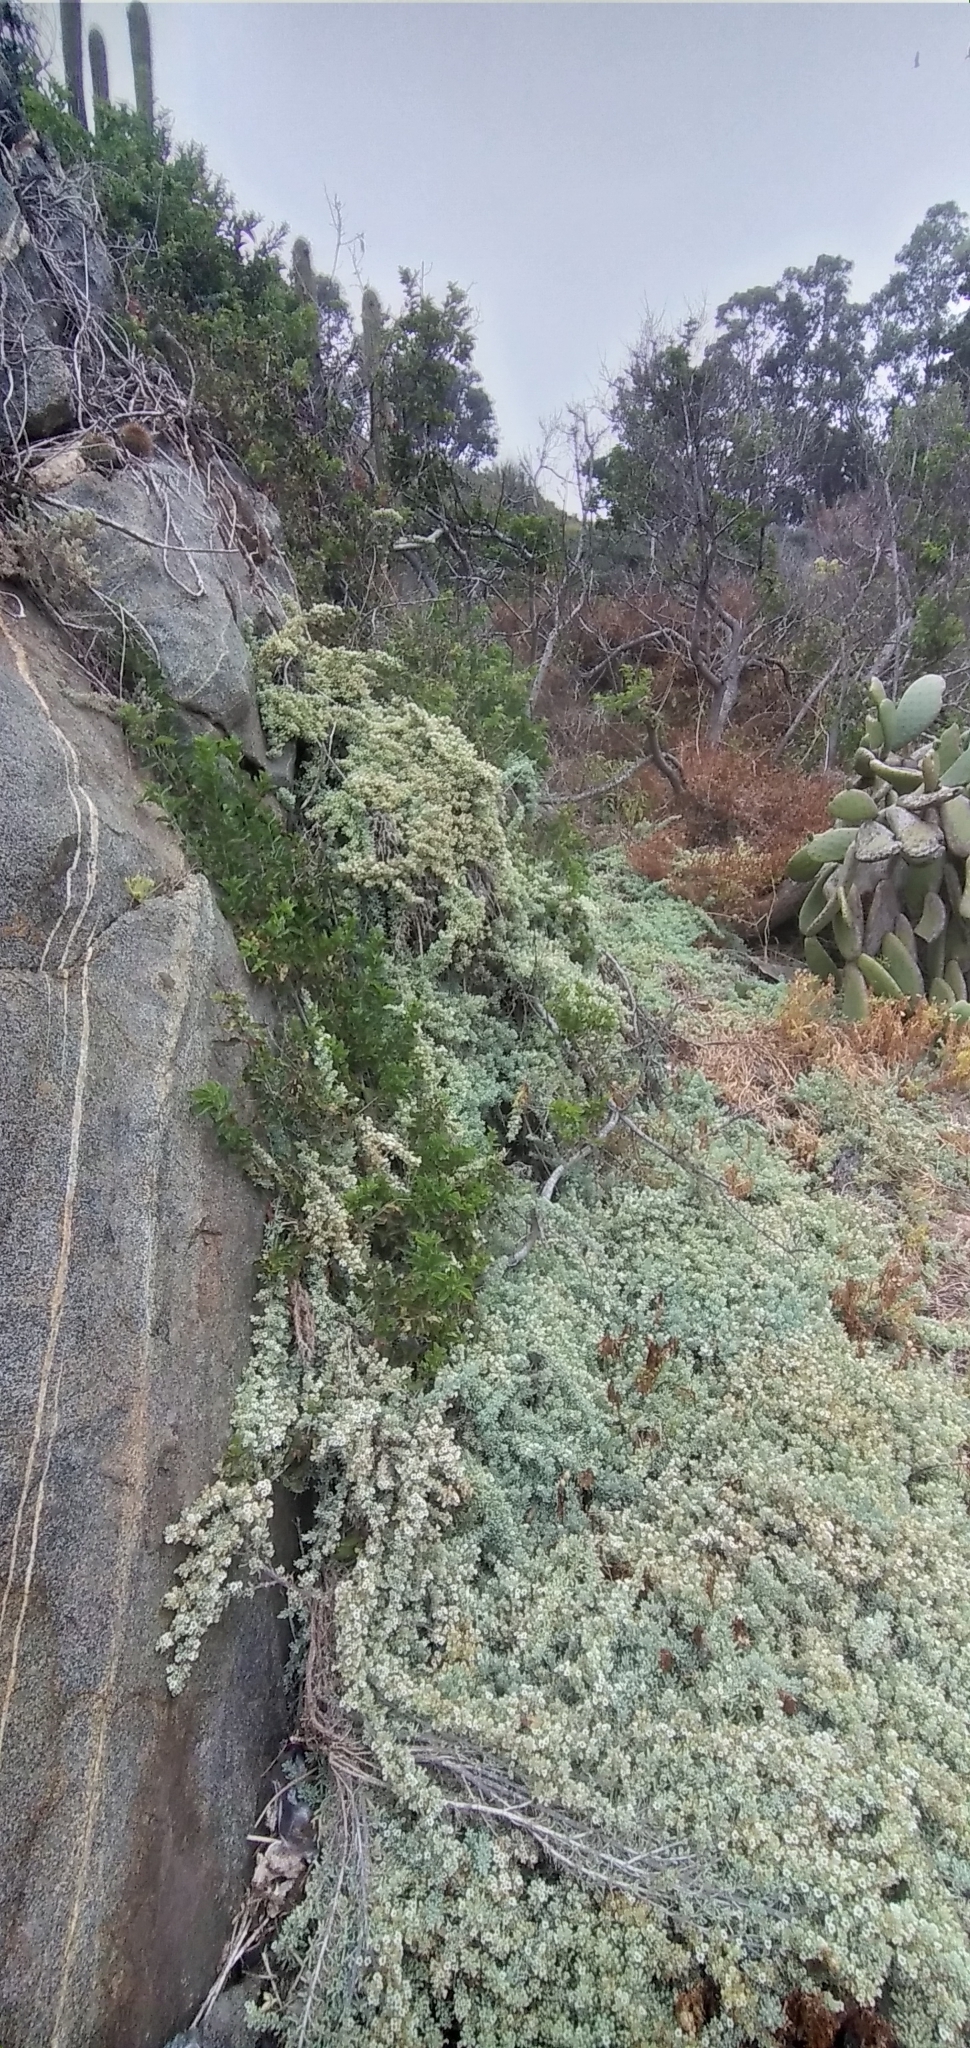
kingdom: Plantae
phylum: Tracheophyta
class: Magnoliopsida
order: Solanales
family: Solanaceae
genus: Nolana
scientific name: Nolana crassulifolia
